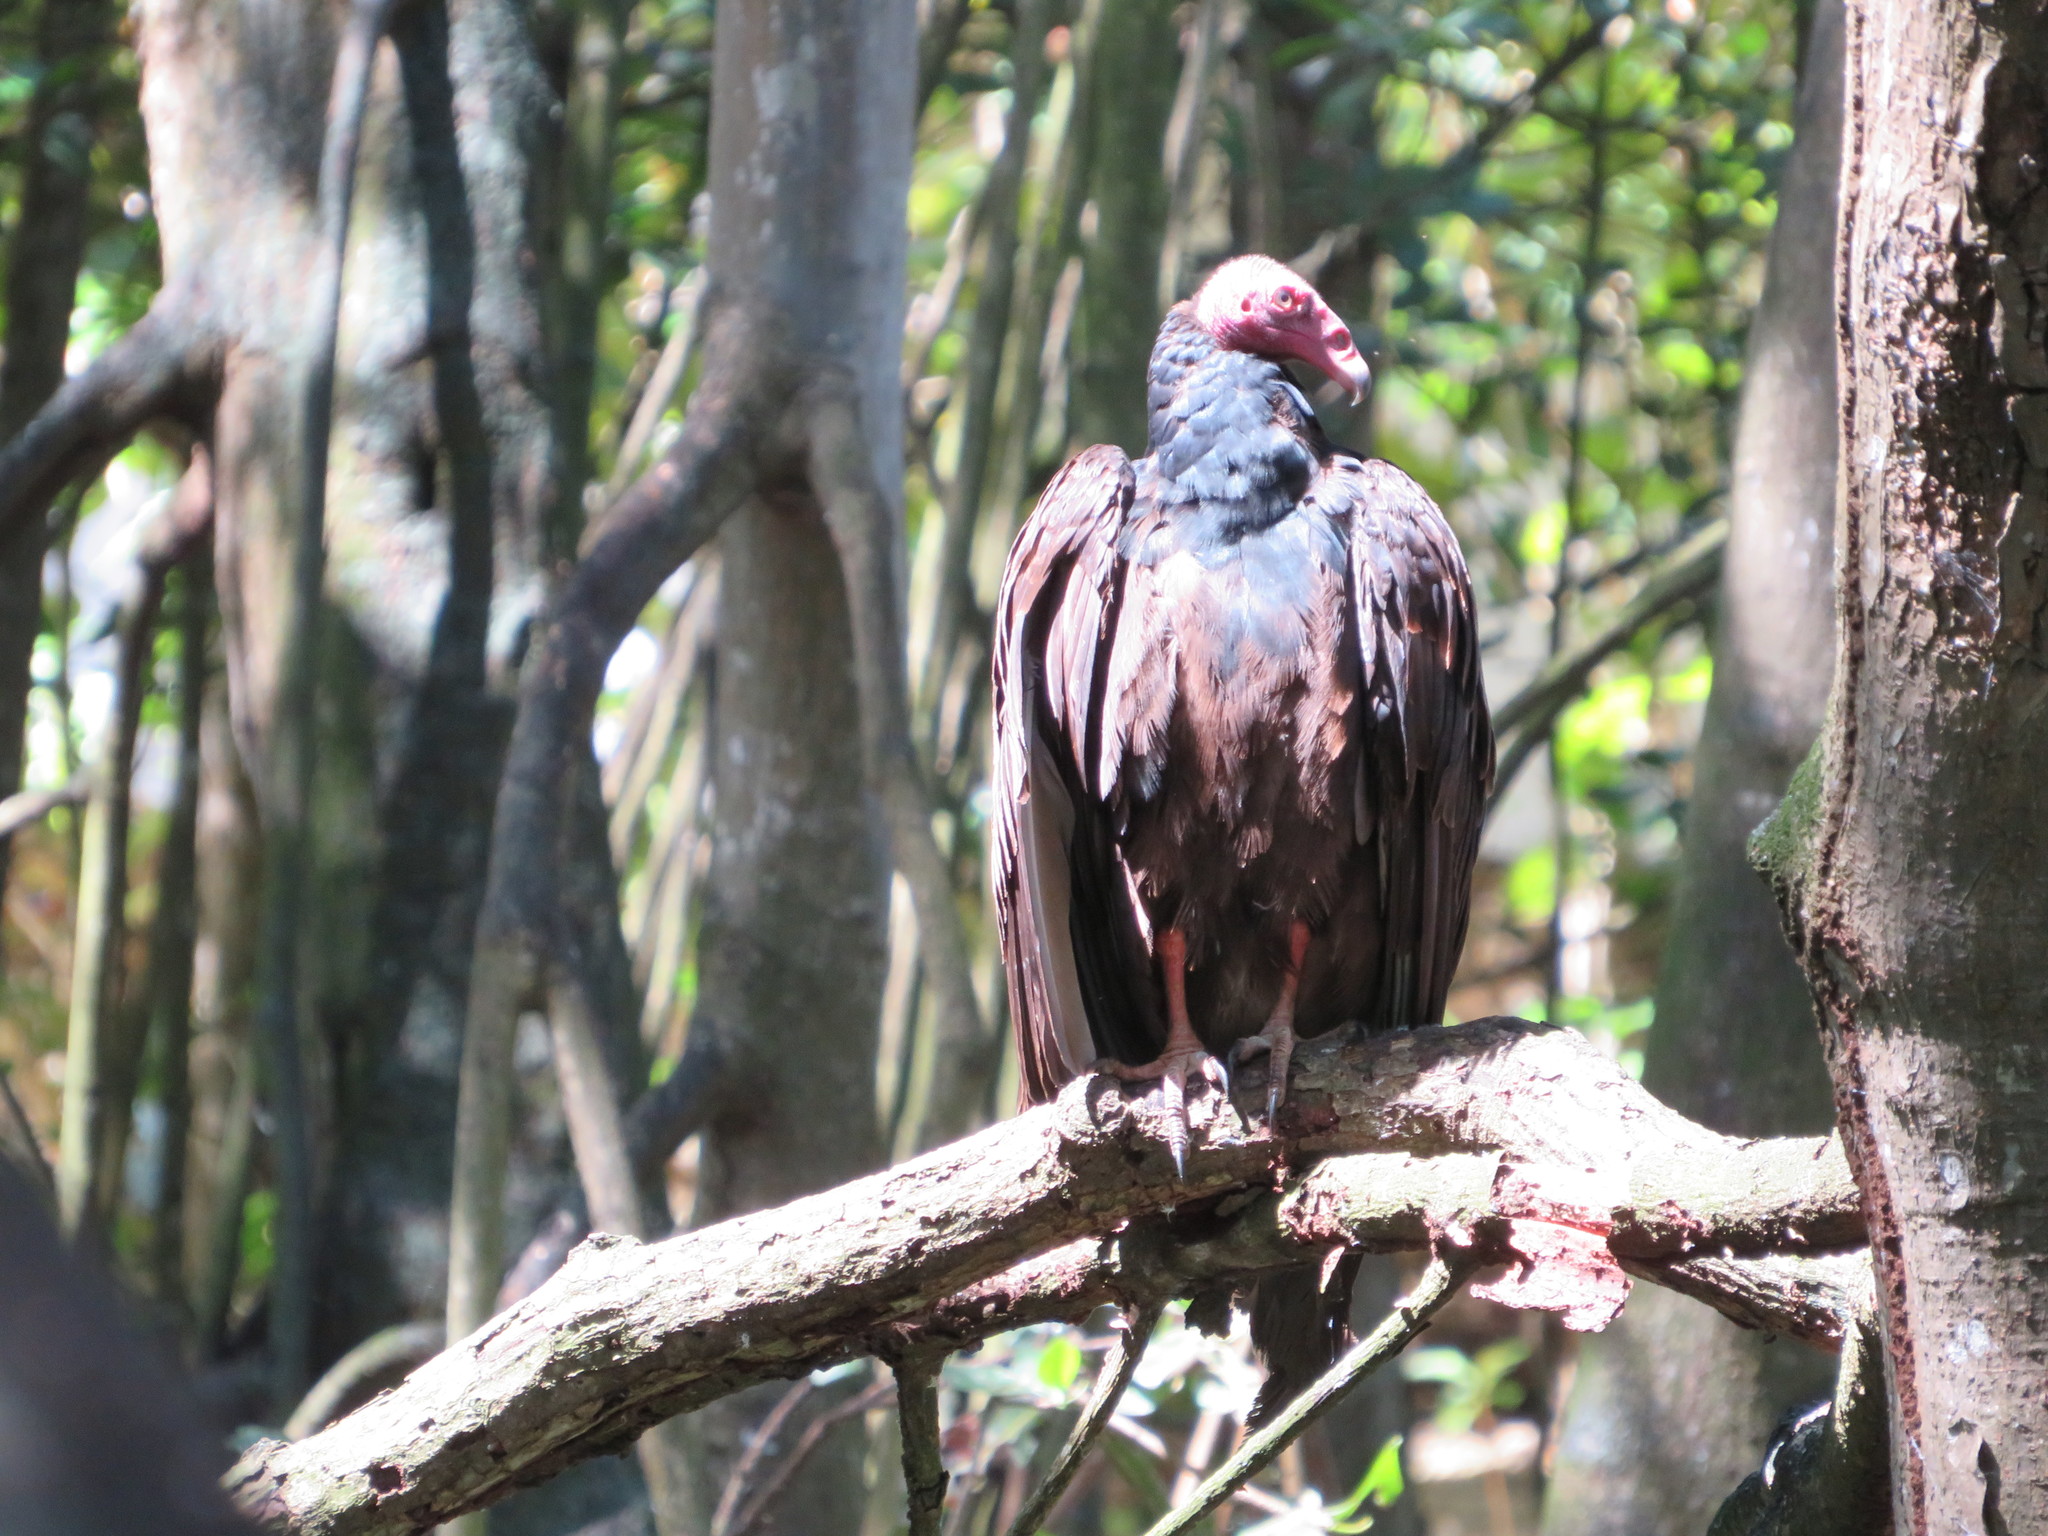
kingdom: Animalia
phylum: Chordata
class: Aves
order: Accipitriformes
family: Cathartidae
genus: Cathartes
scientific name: Cathartes aura
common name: Turkey vulture
